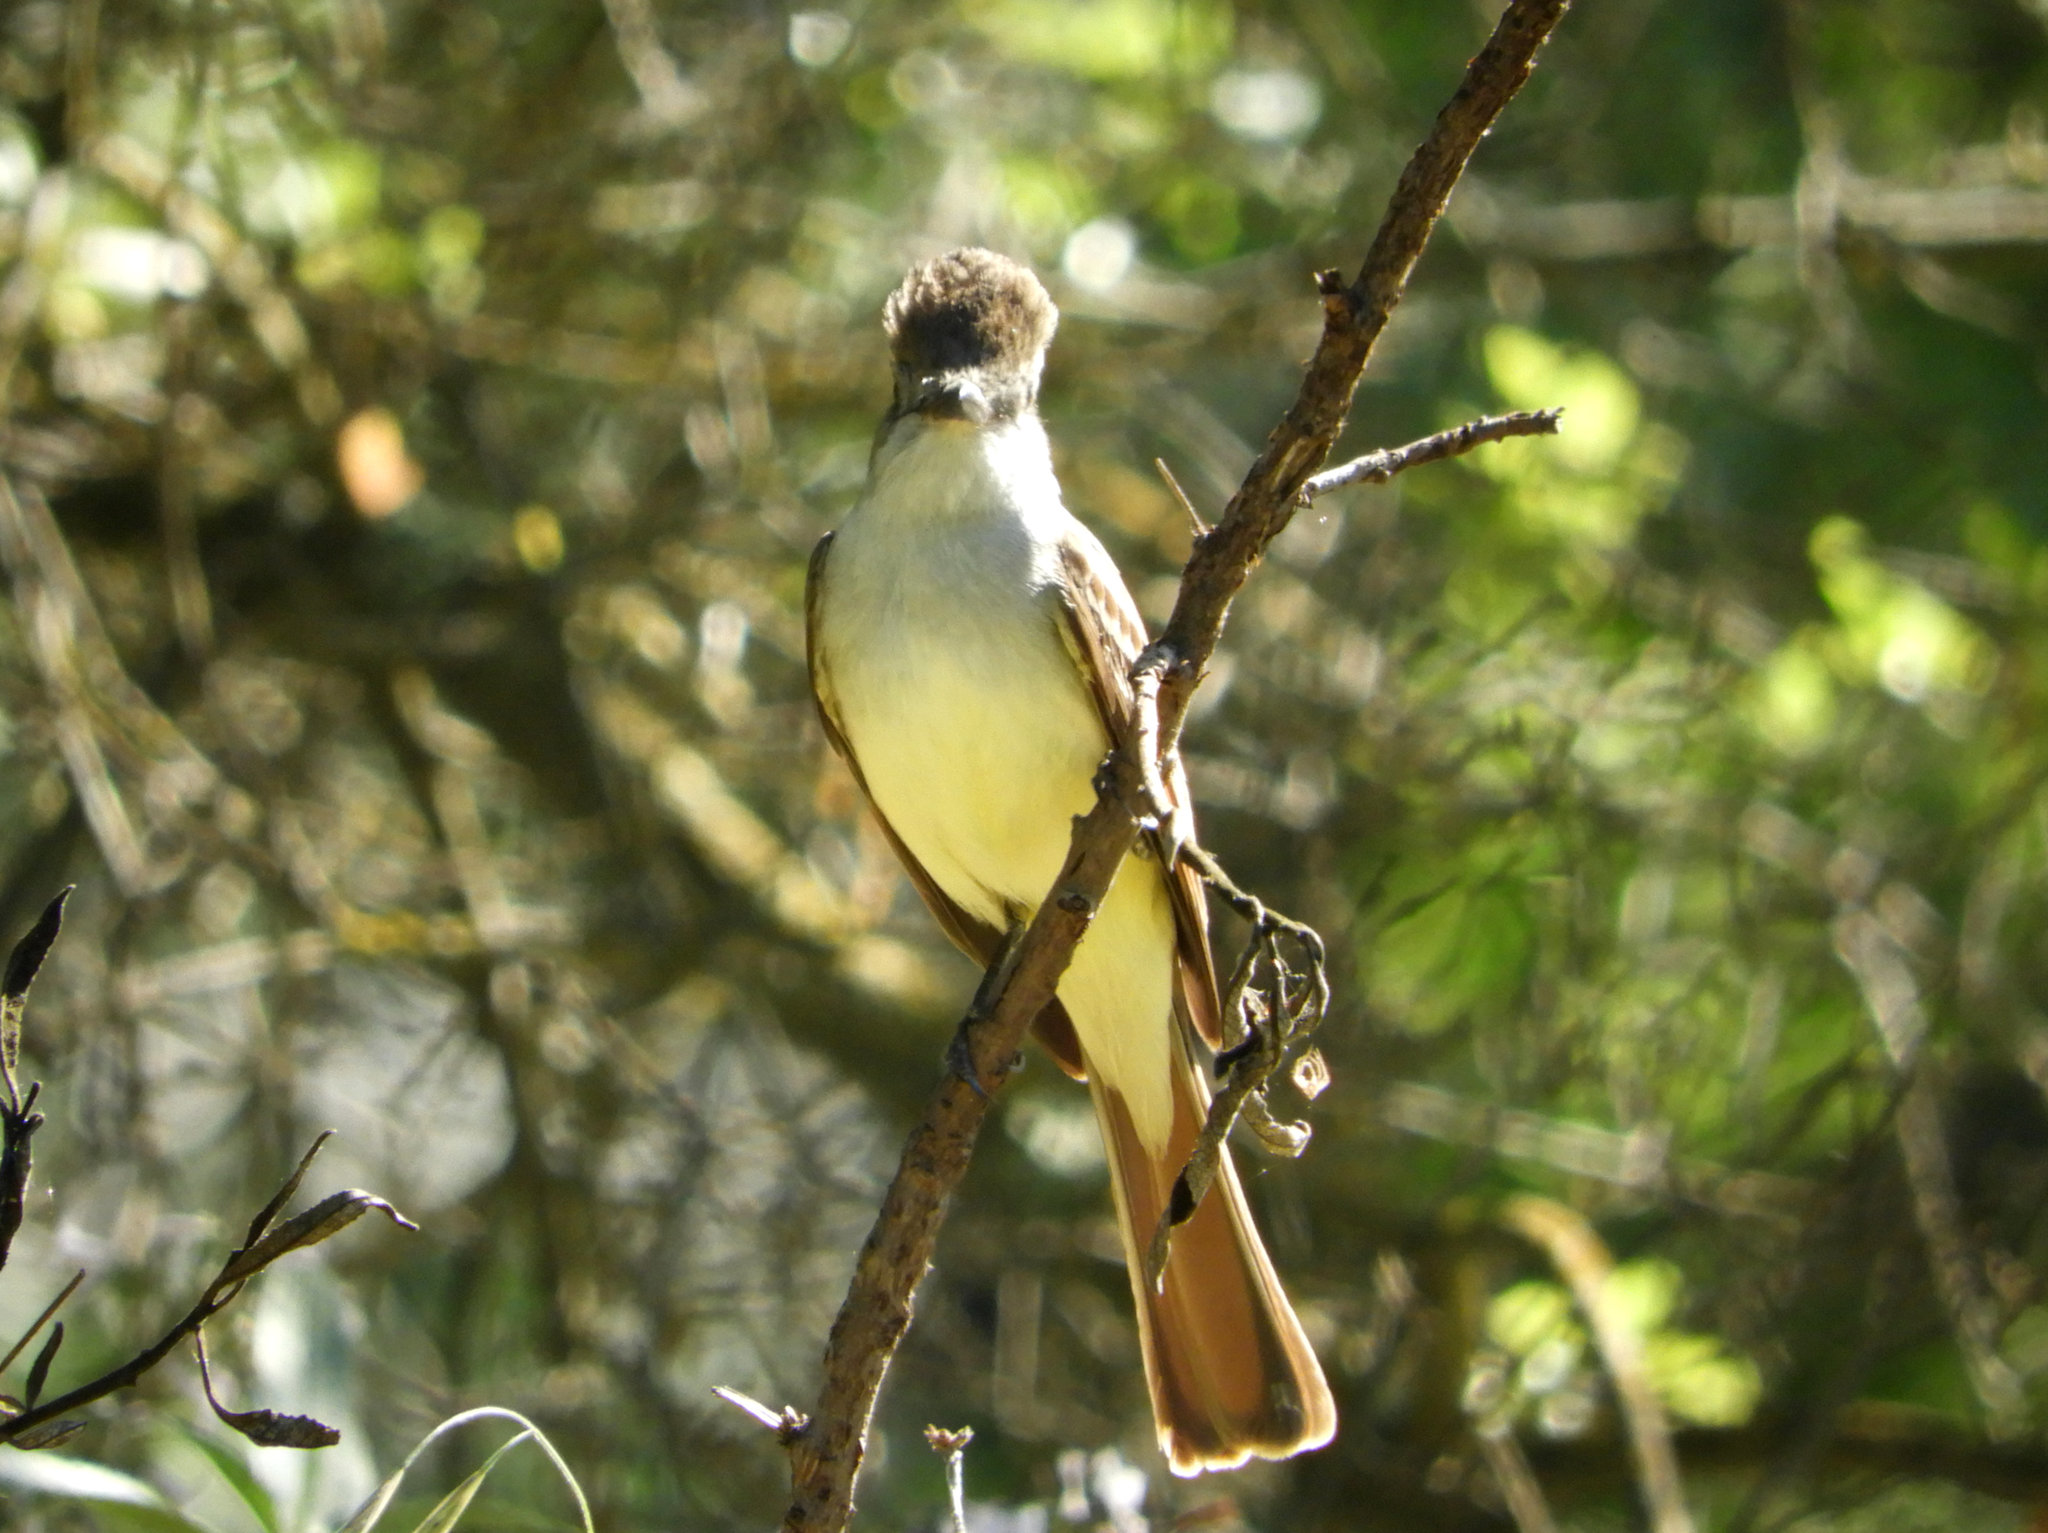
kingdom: Animalia
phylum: Chordata
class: Aves
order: Passeriformes
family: Tyrannidae
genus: Myiarchus
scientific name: Myiarchus cinerascens
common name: Ash-throated flycatcher
